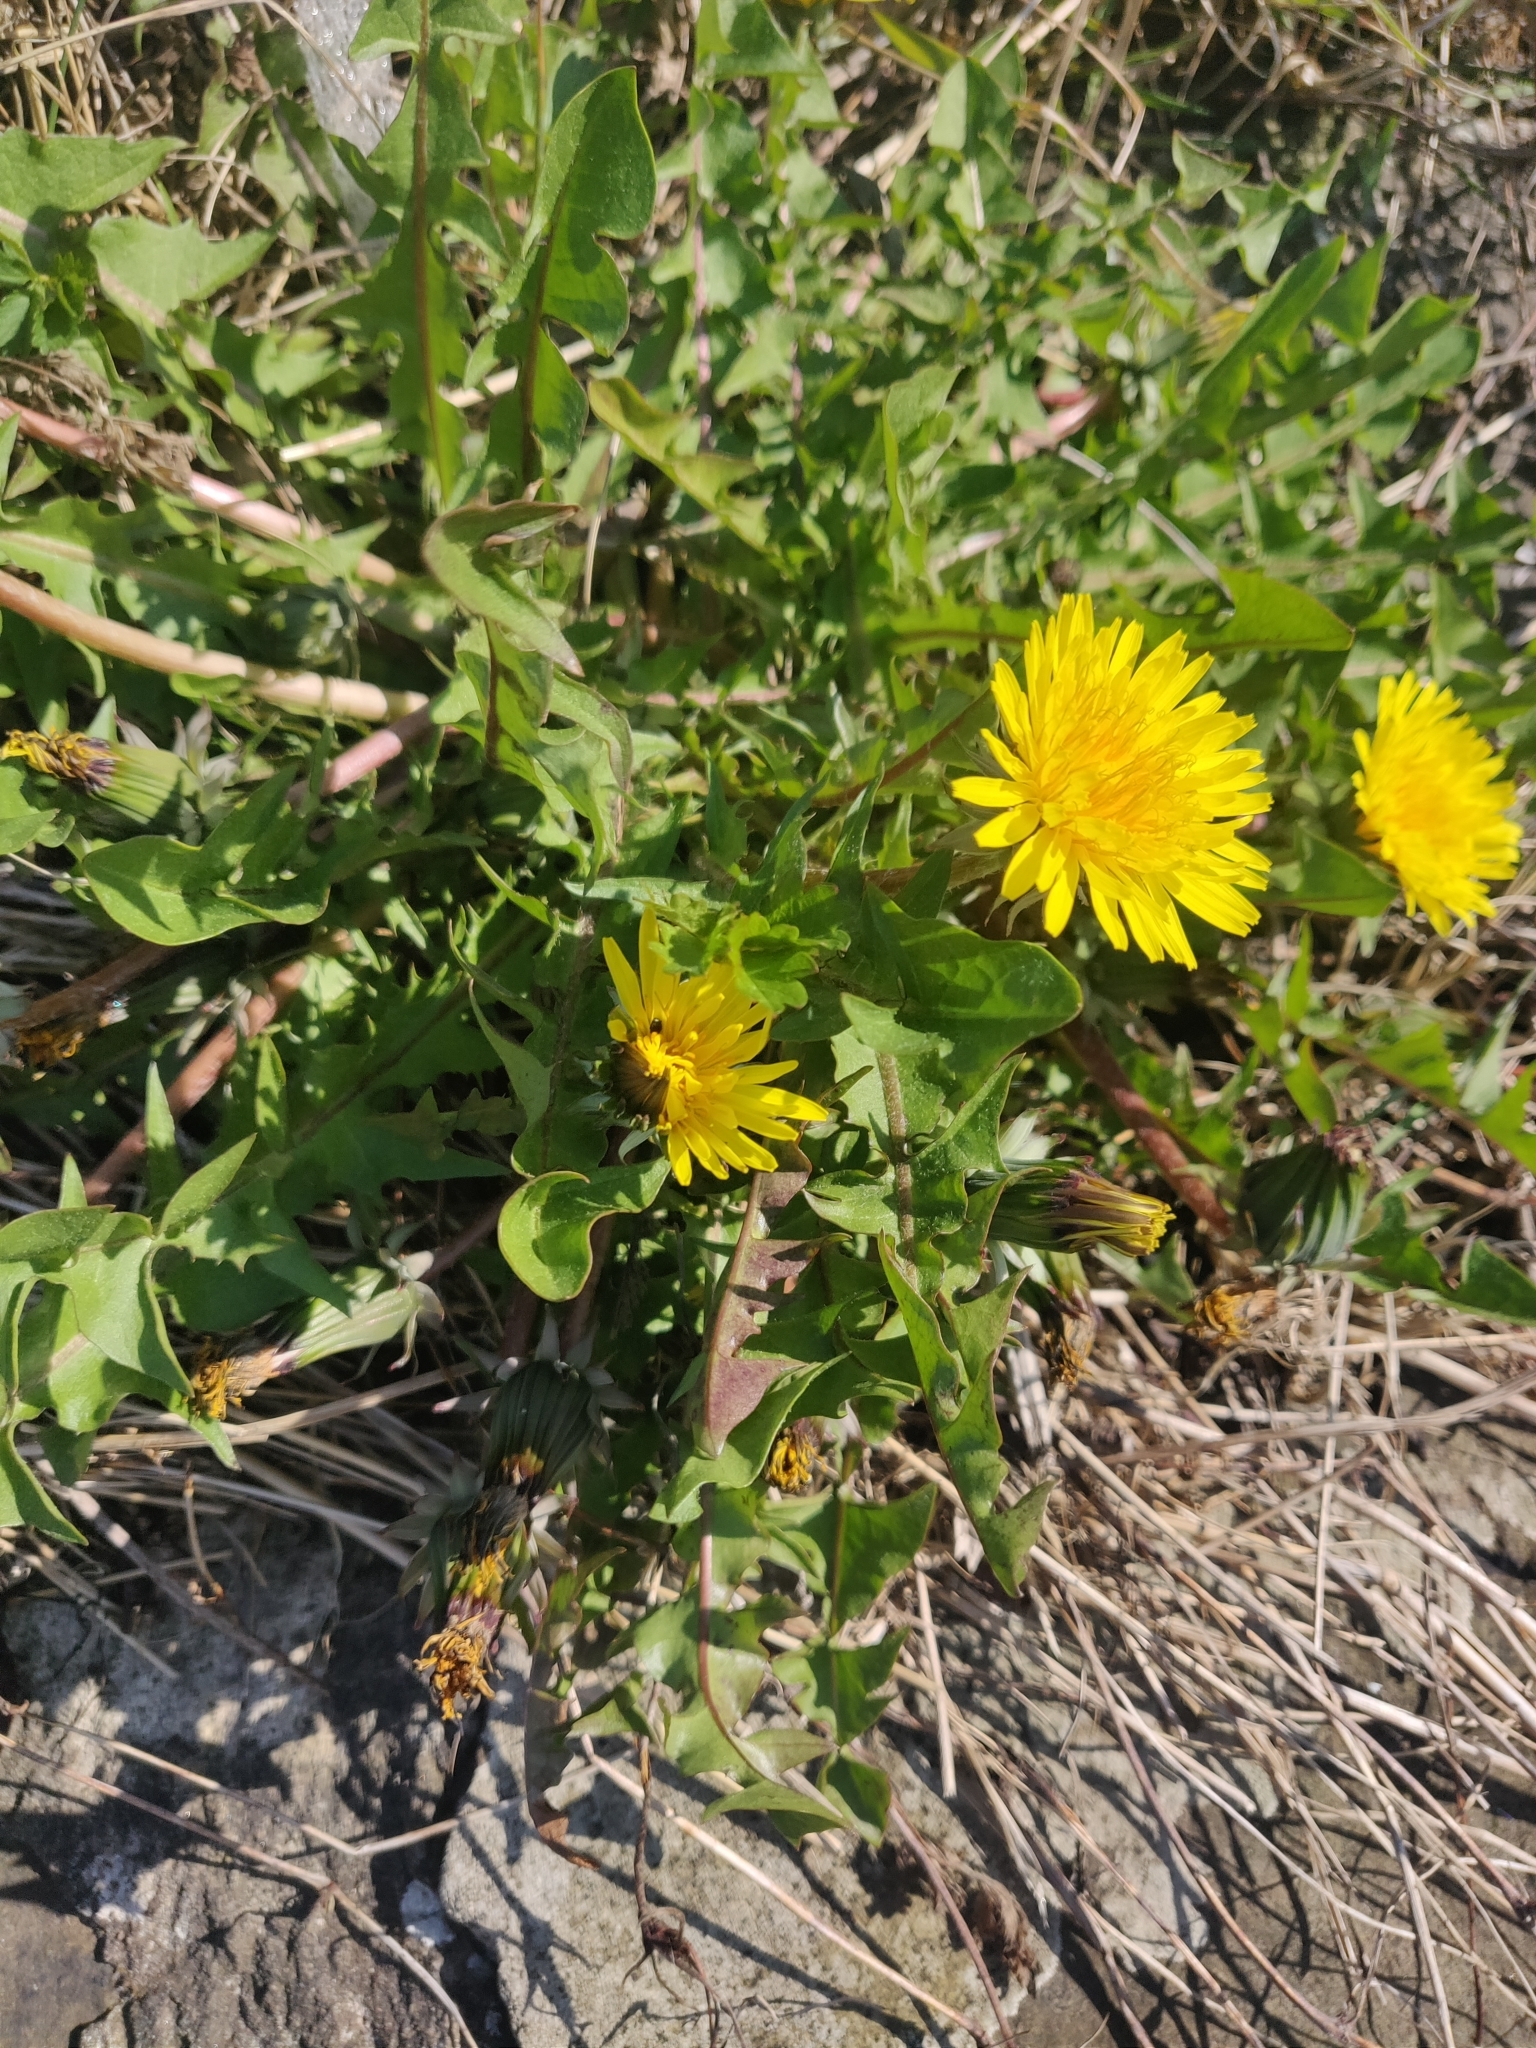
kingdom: Plantae
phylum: Tracheophyta
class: Magnoliopsida
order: Asterales
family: Asteraceae
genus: Taraxacum
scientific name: Taraxacum officinale
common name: Common dandelion
